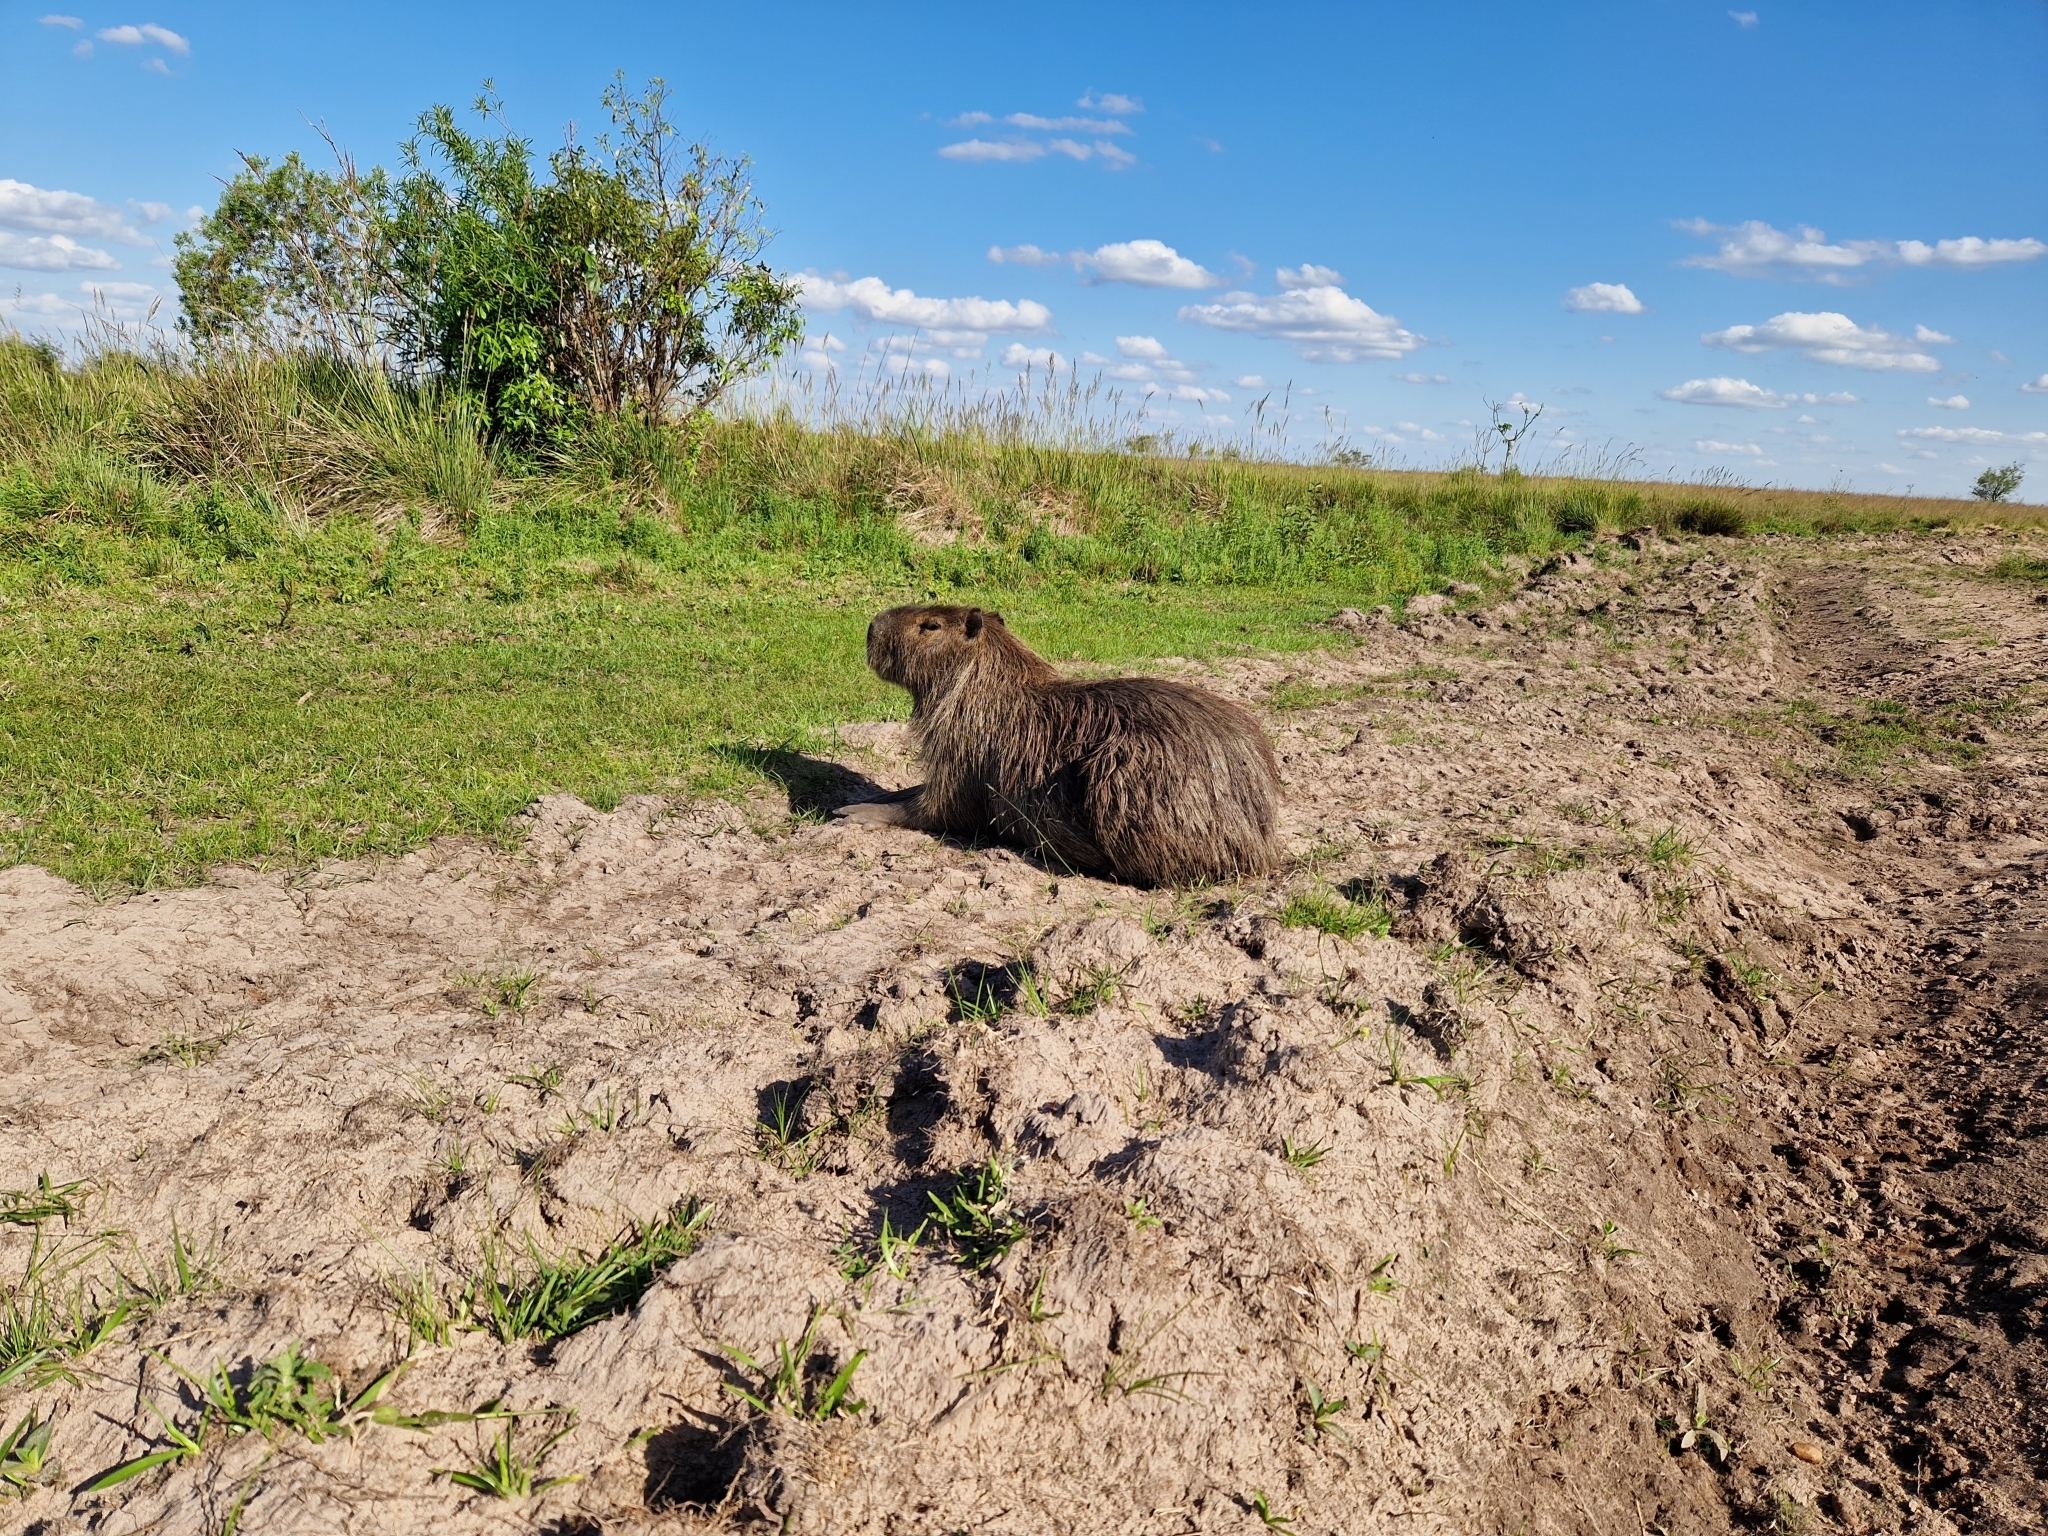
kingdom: Animalia
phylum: Chordata
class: Mammalia
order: Rodentia
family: Caviidae
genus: Hydrochoerus
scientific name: Hydrochoerus hydrochaeris
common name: Capybara
